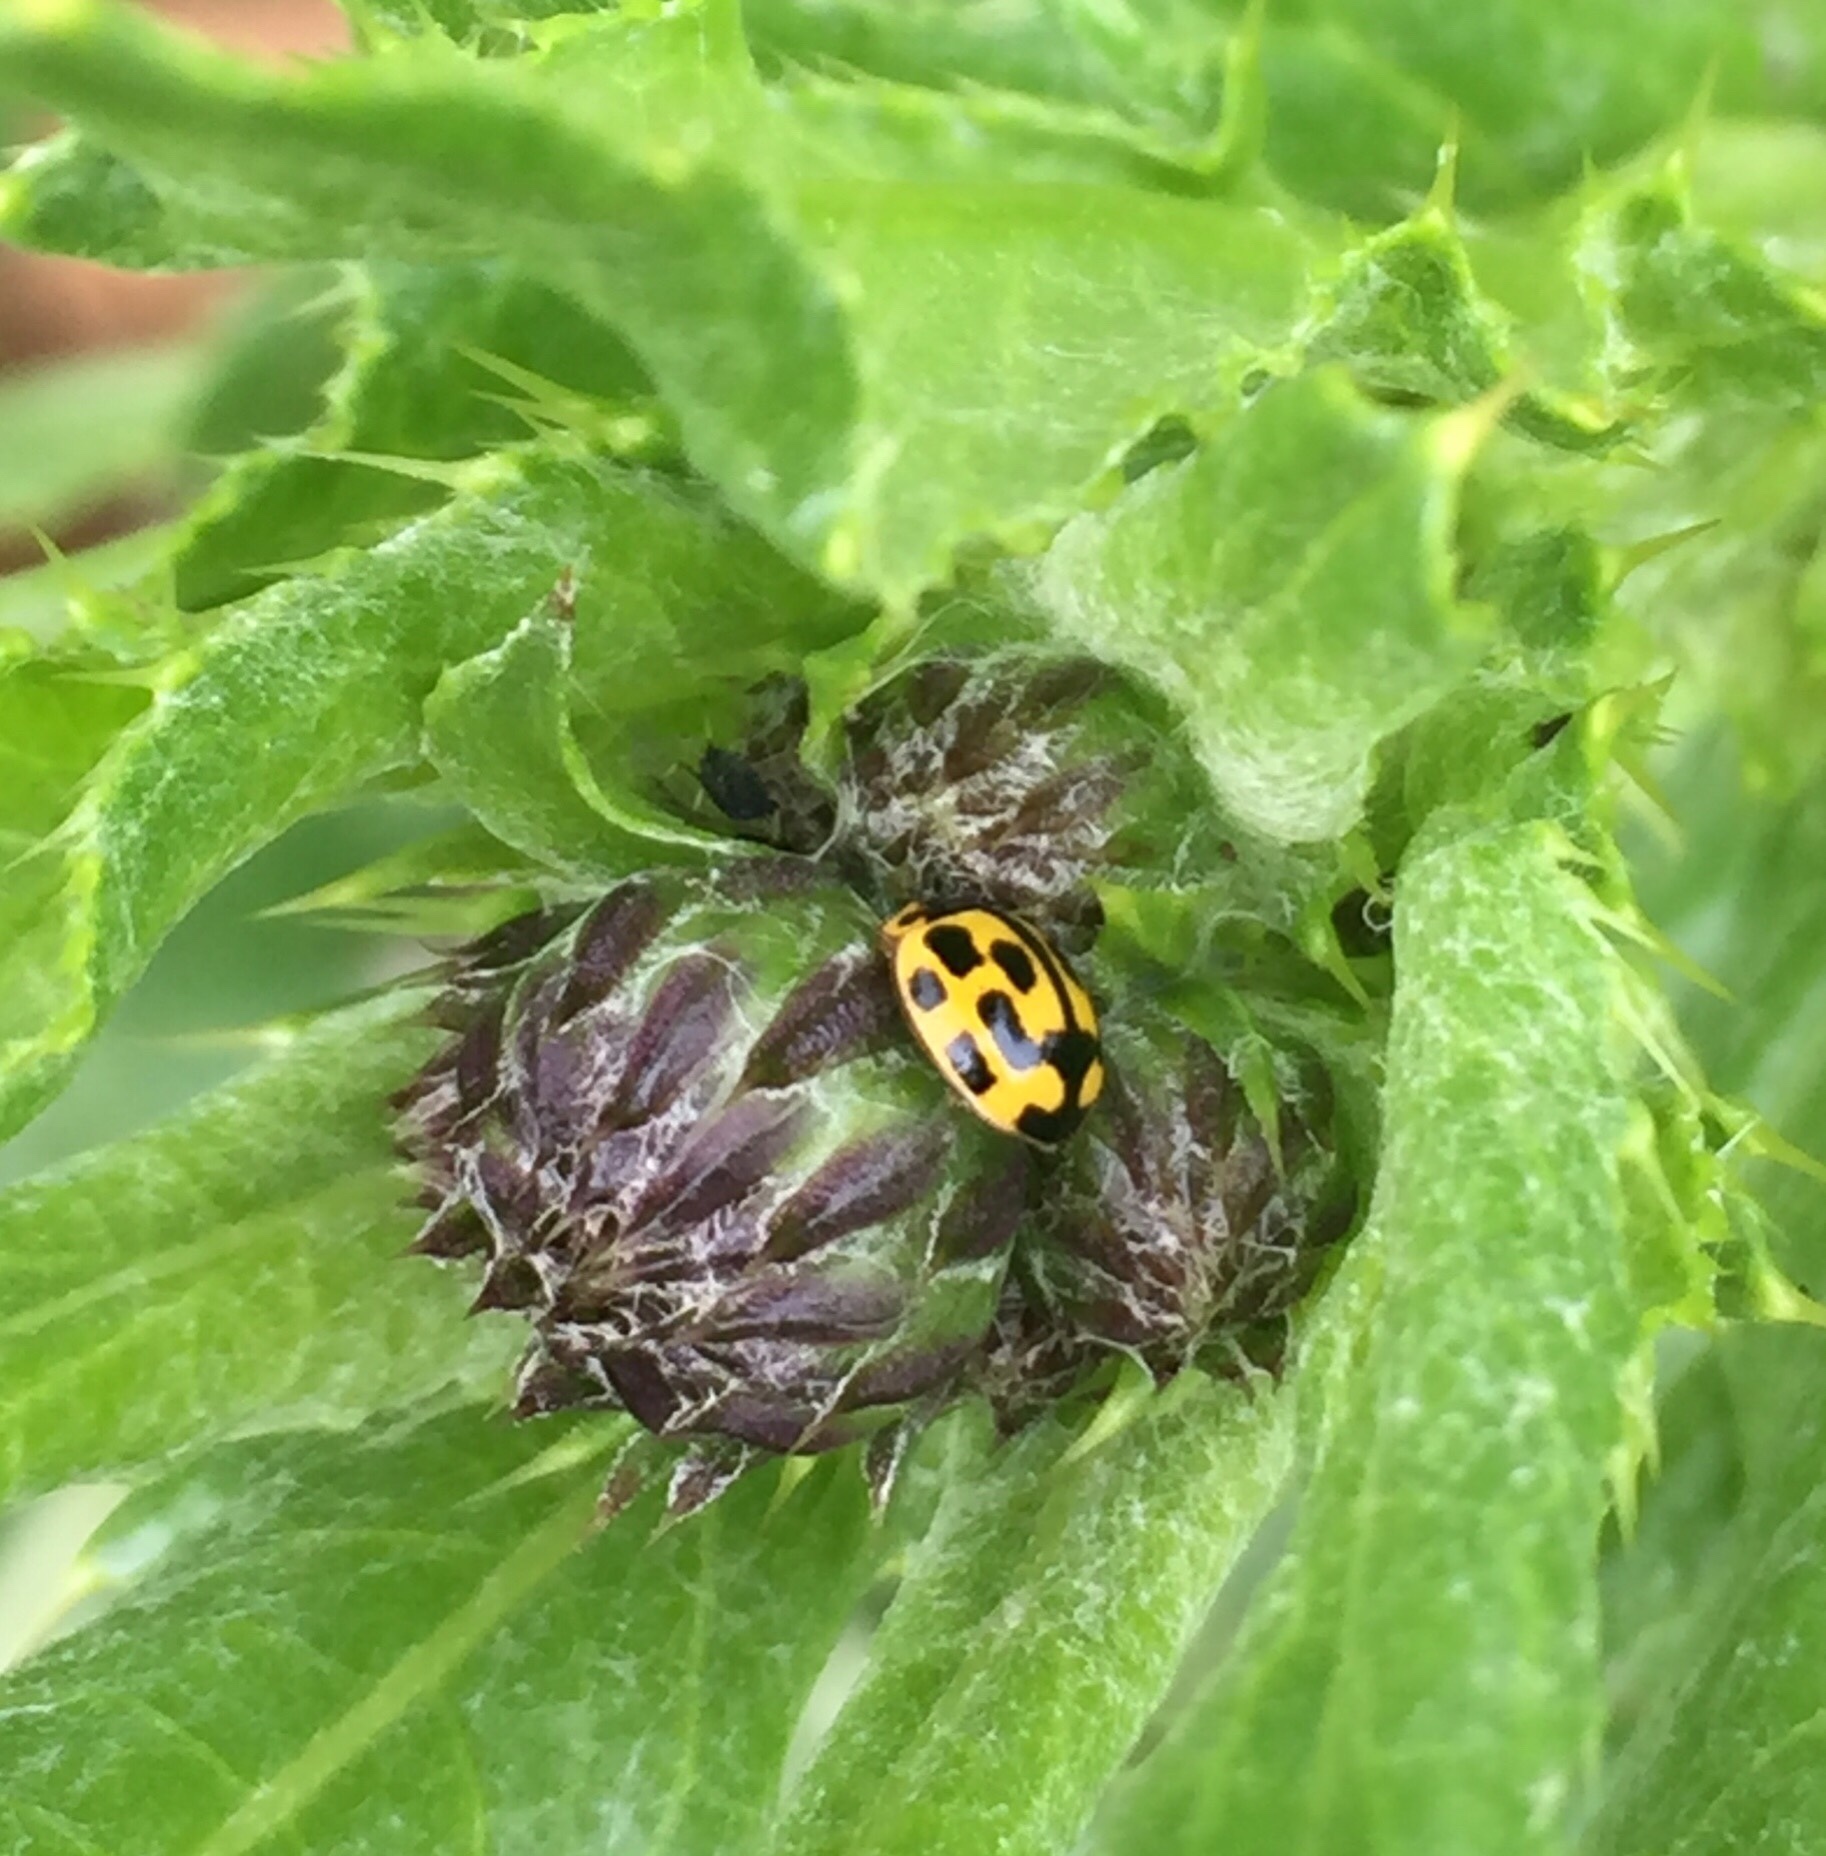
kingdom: Animalia
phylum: Arthropoda
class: Insecta
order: Coleoptera
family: Coccinellidae
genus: Propylaea
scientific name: Propylaea quatuordecimpunctata
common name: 14-spotted ladybird beetle
